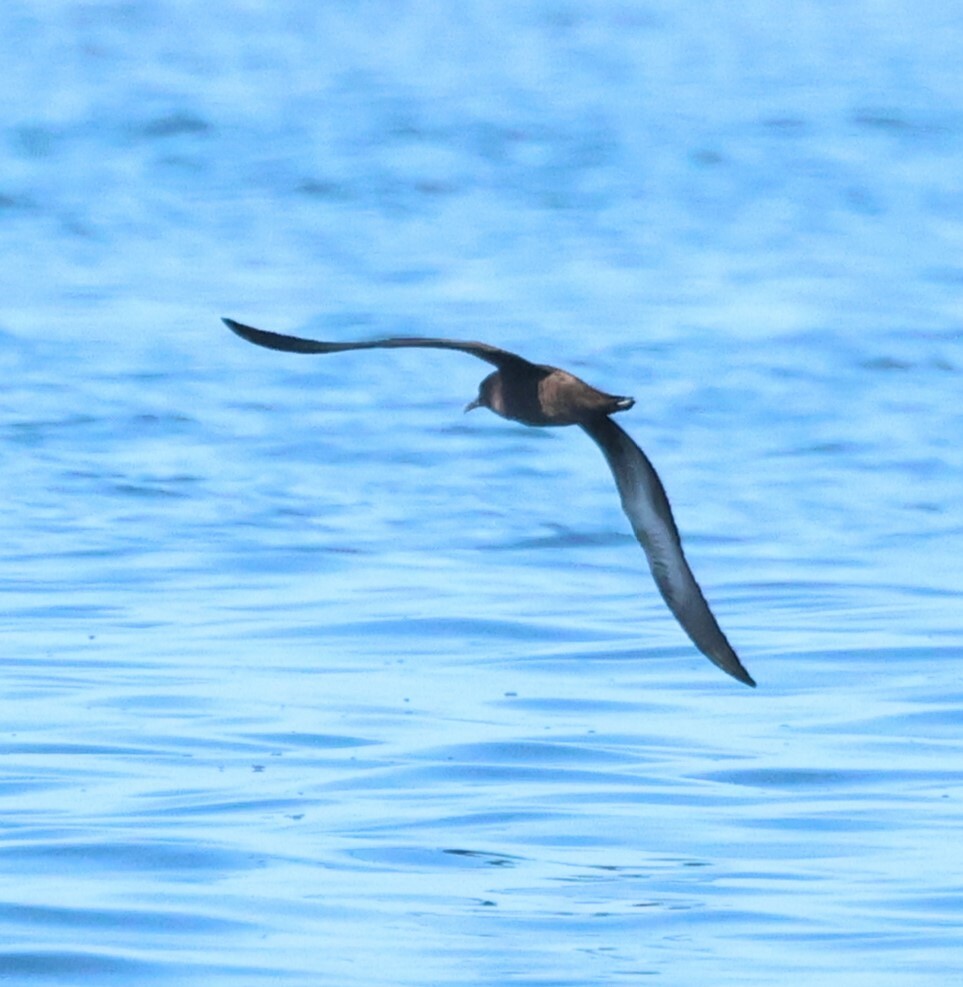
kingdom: Animalia
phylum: Chordata
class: Aves
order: Procellariiformes
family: Procellariidae
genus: Puffinus
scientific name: Puffinus griseus
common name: Sooty shearwater
